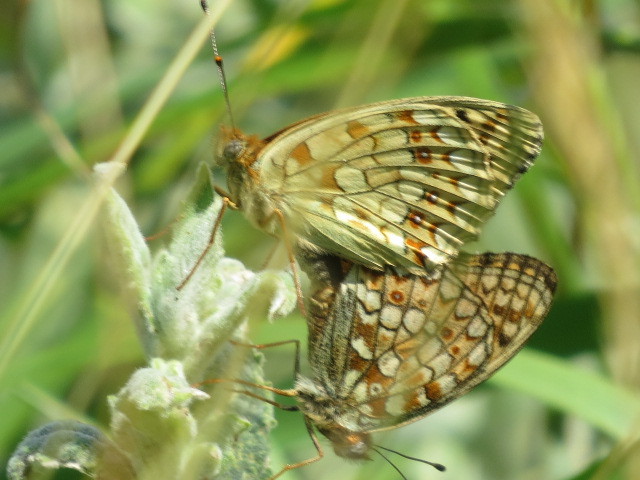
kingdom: Animalia
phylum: Arthropoda
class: Insecta
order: Lepidoptera
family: Nymphalidae
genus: Fabriciana
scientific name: Fabriciana niobe
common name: Niobe fritillary
